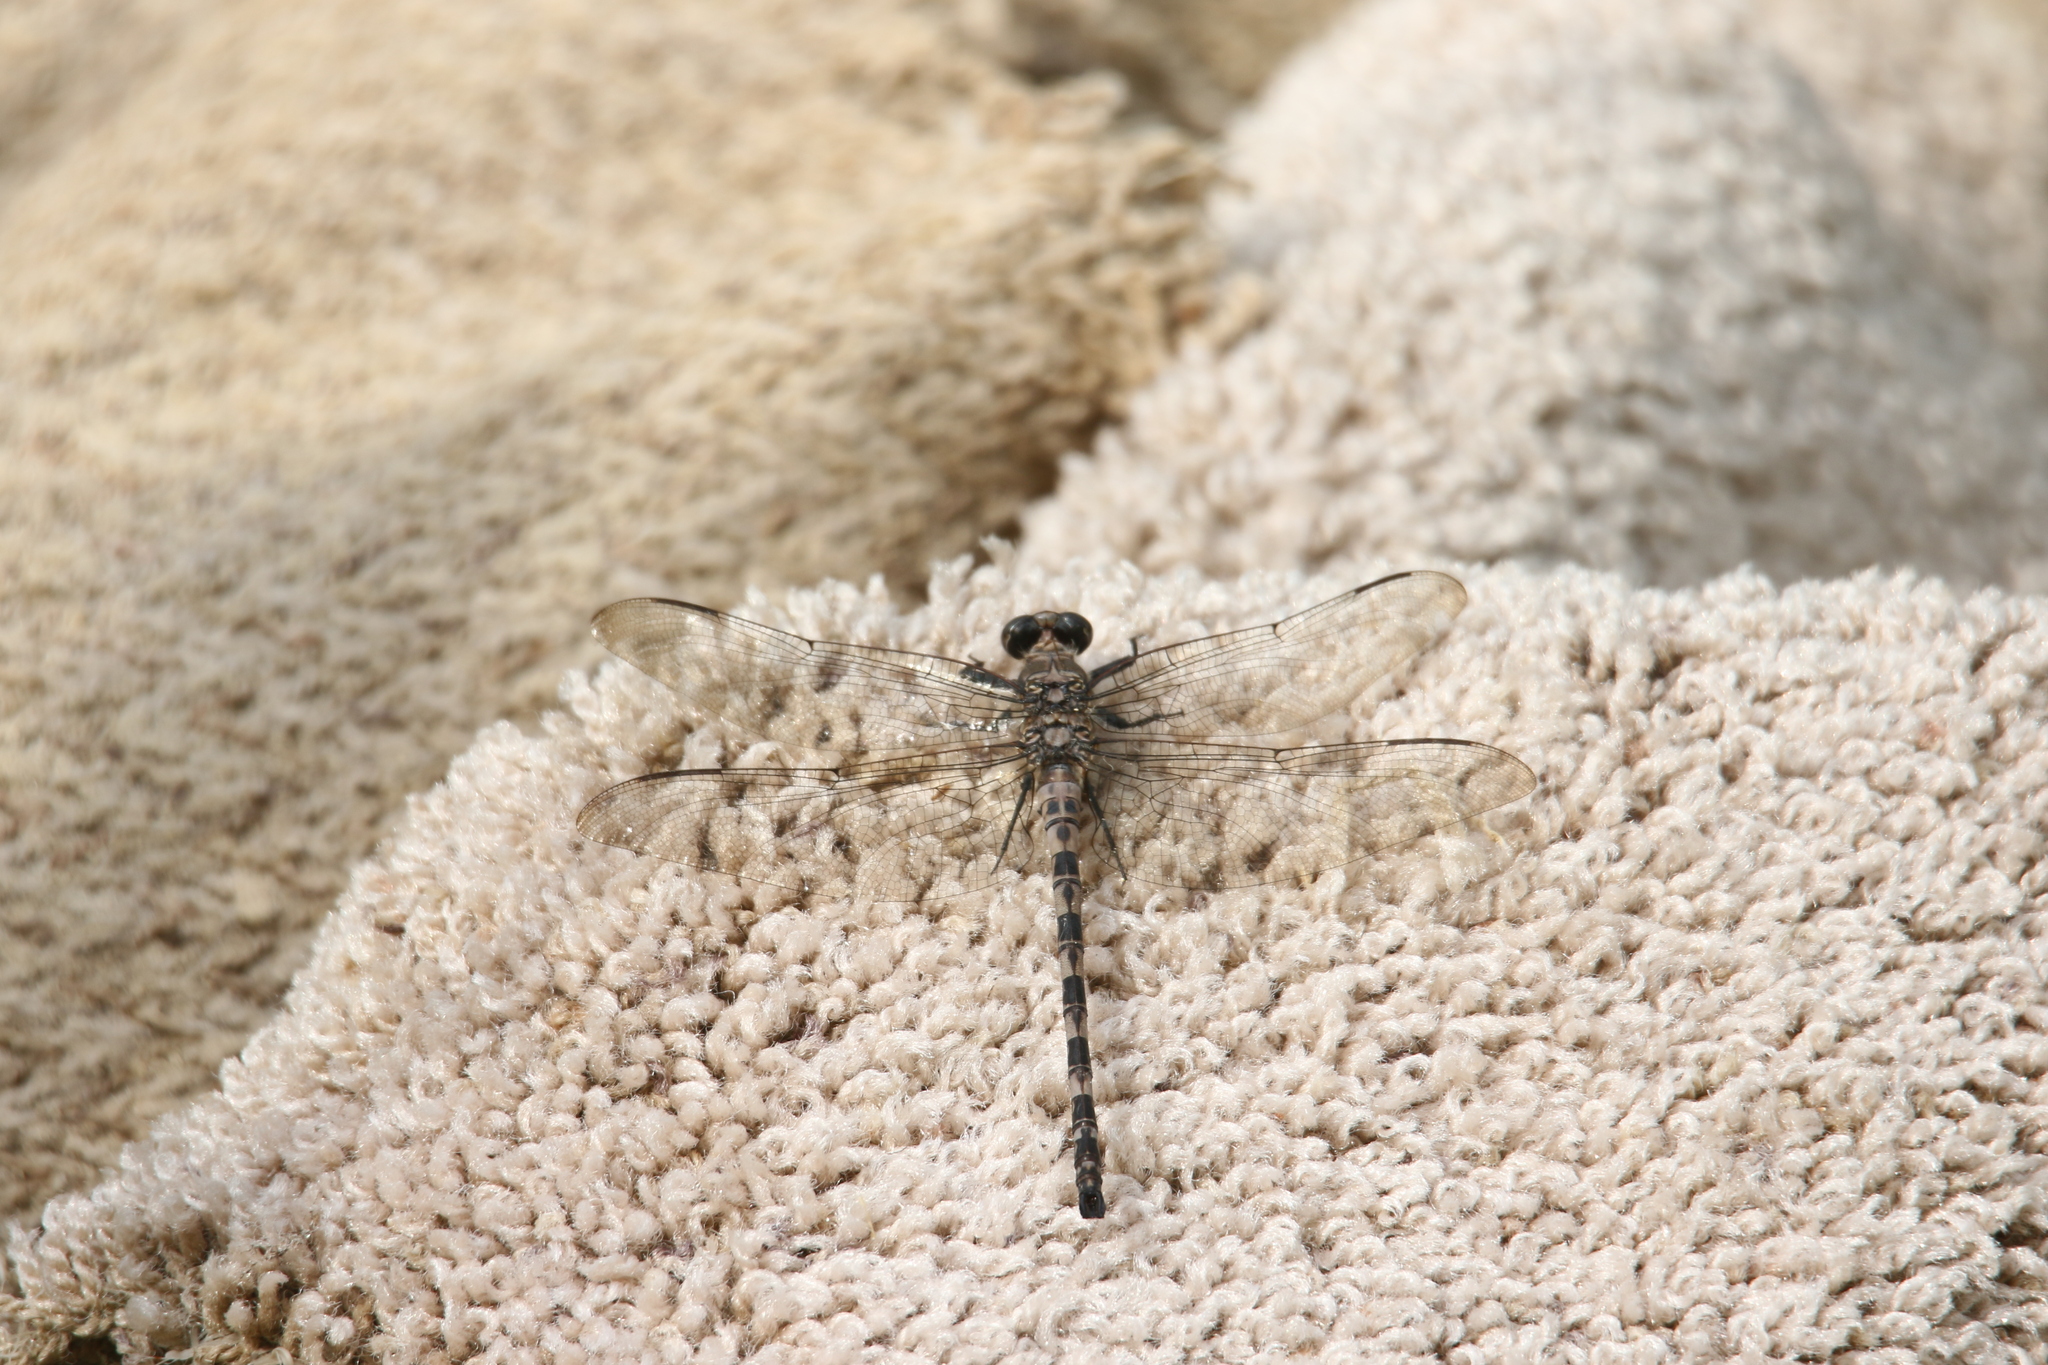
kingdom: Animalia
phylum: Arthropoda
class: Insecta
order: Odonata
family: Petaluridae
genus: Tachopteryx
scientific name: Tachopteryx thoreyi
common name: Gray petaltail
